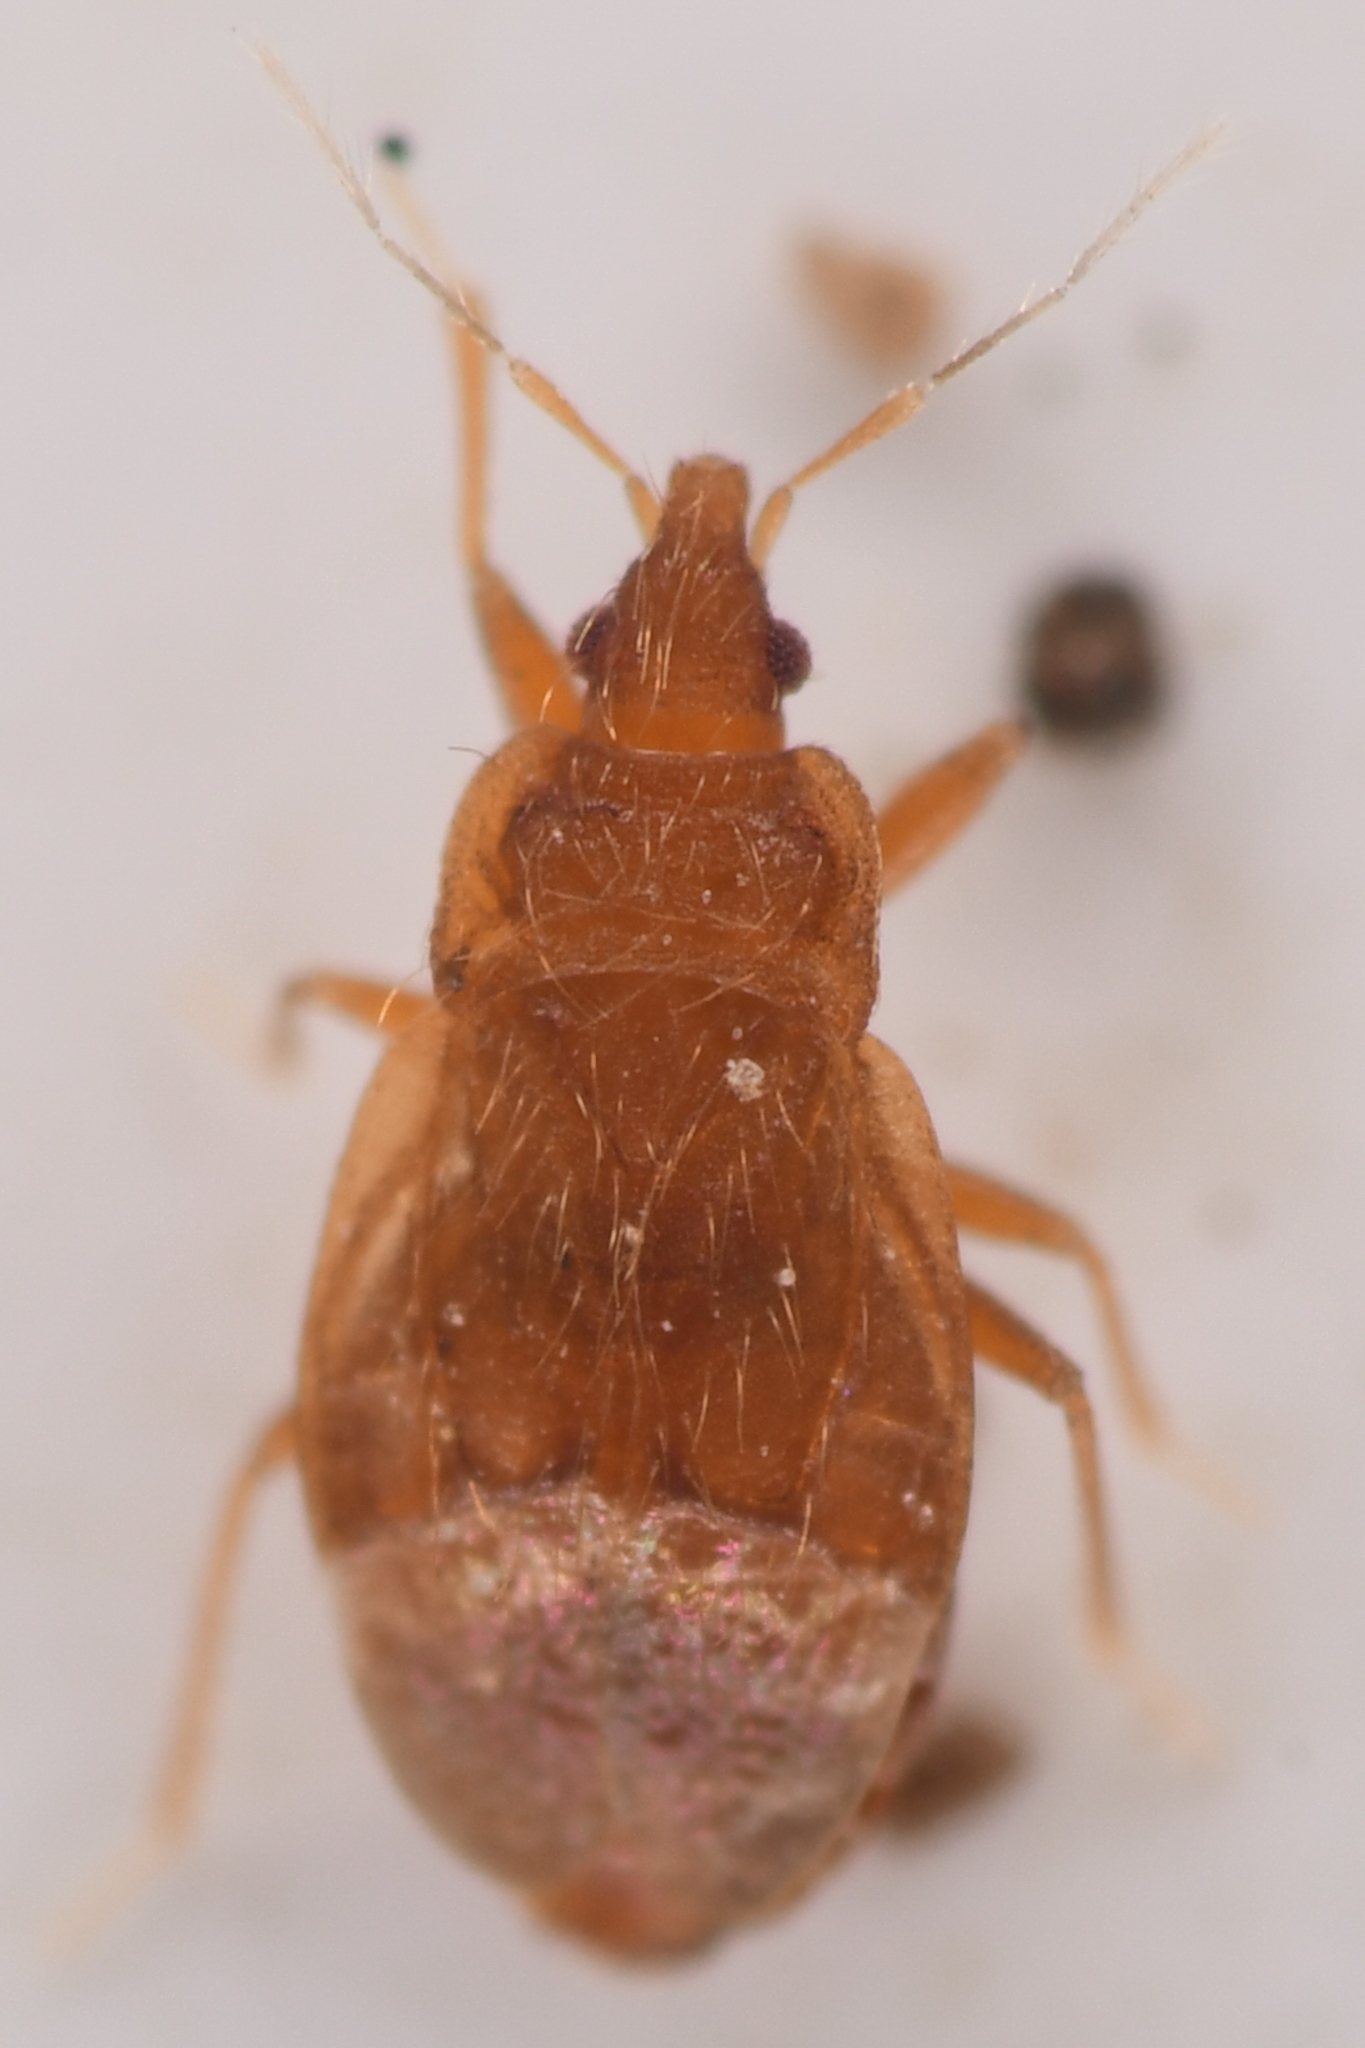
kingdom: Animalia
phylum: Arthropoda
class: Insecta
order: Hemiptera
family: Anthocoridae
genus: Nidicola
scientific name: Nidicola jaegeri
